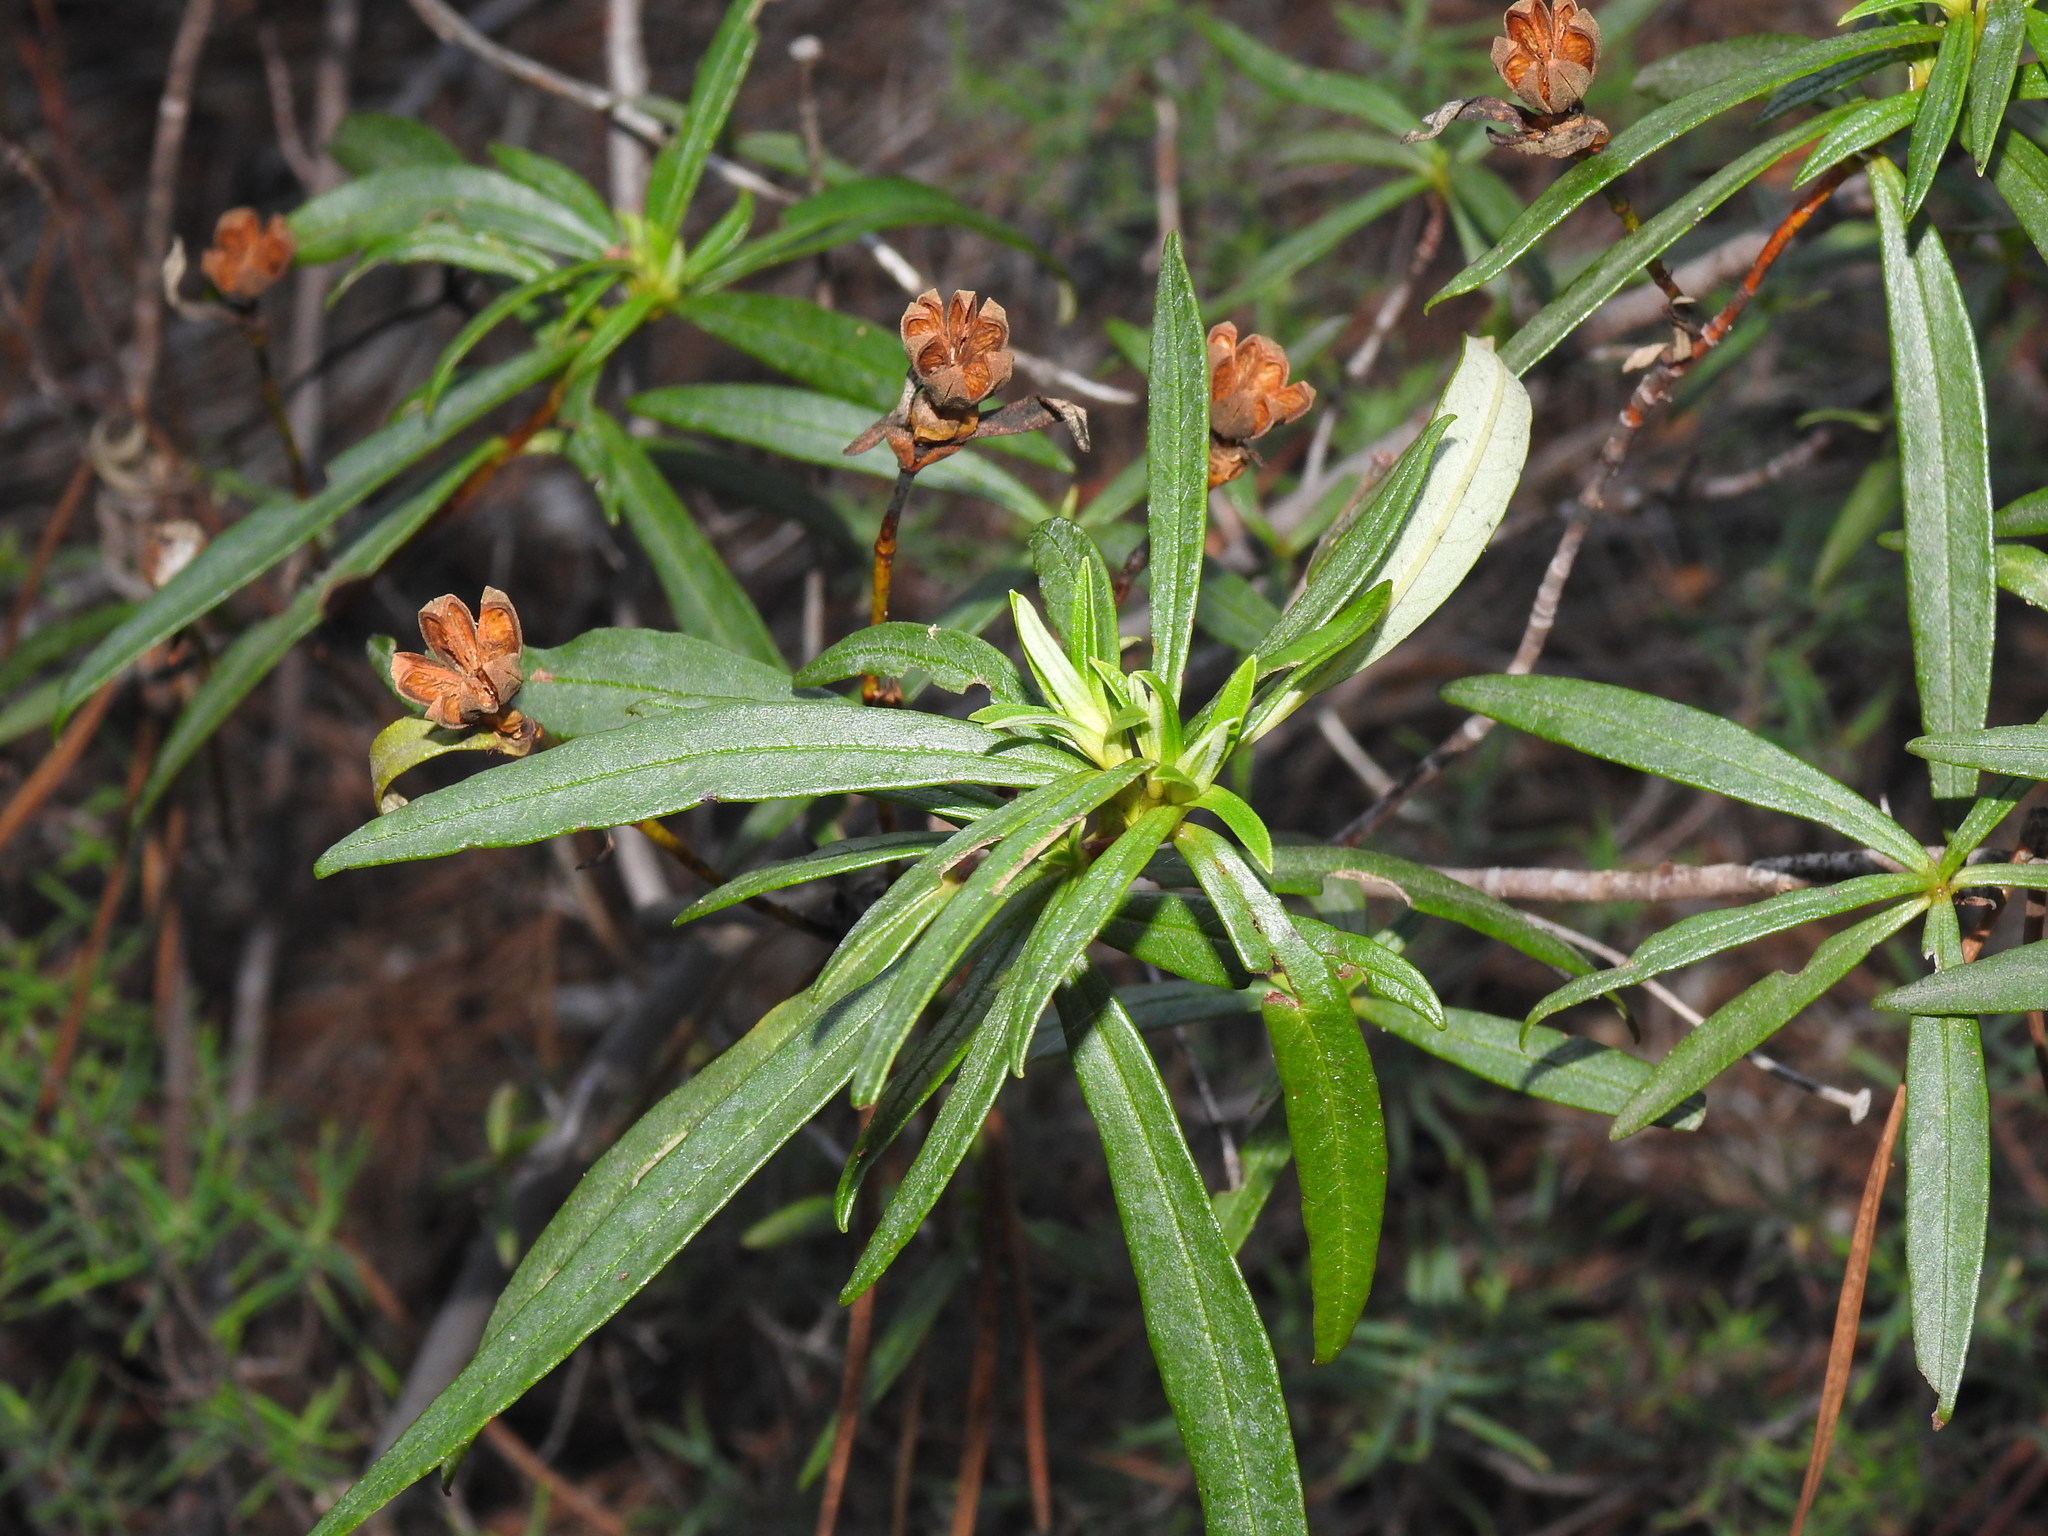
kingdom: Plantae
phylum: Tracheophyta
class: Magnoliopsida
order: Malvales
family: Cistaceae
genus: Cistus
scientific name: Cistus ladanifer
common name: Common gum cistus
